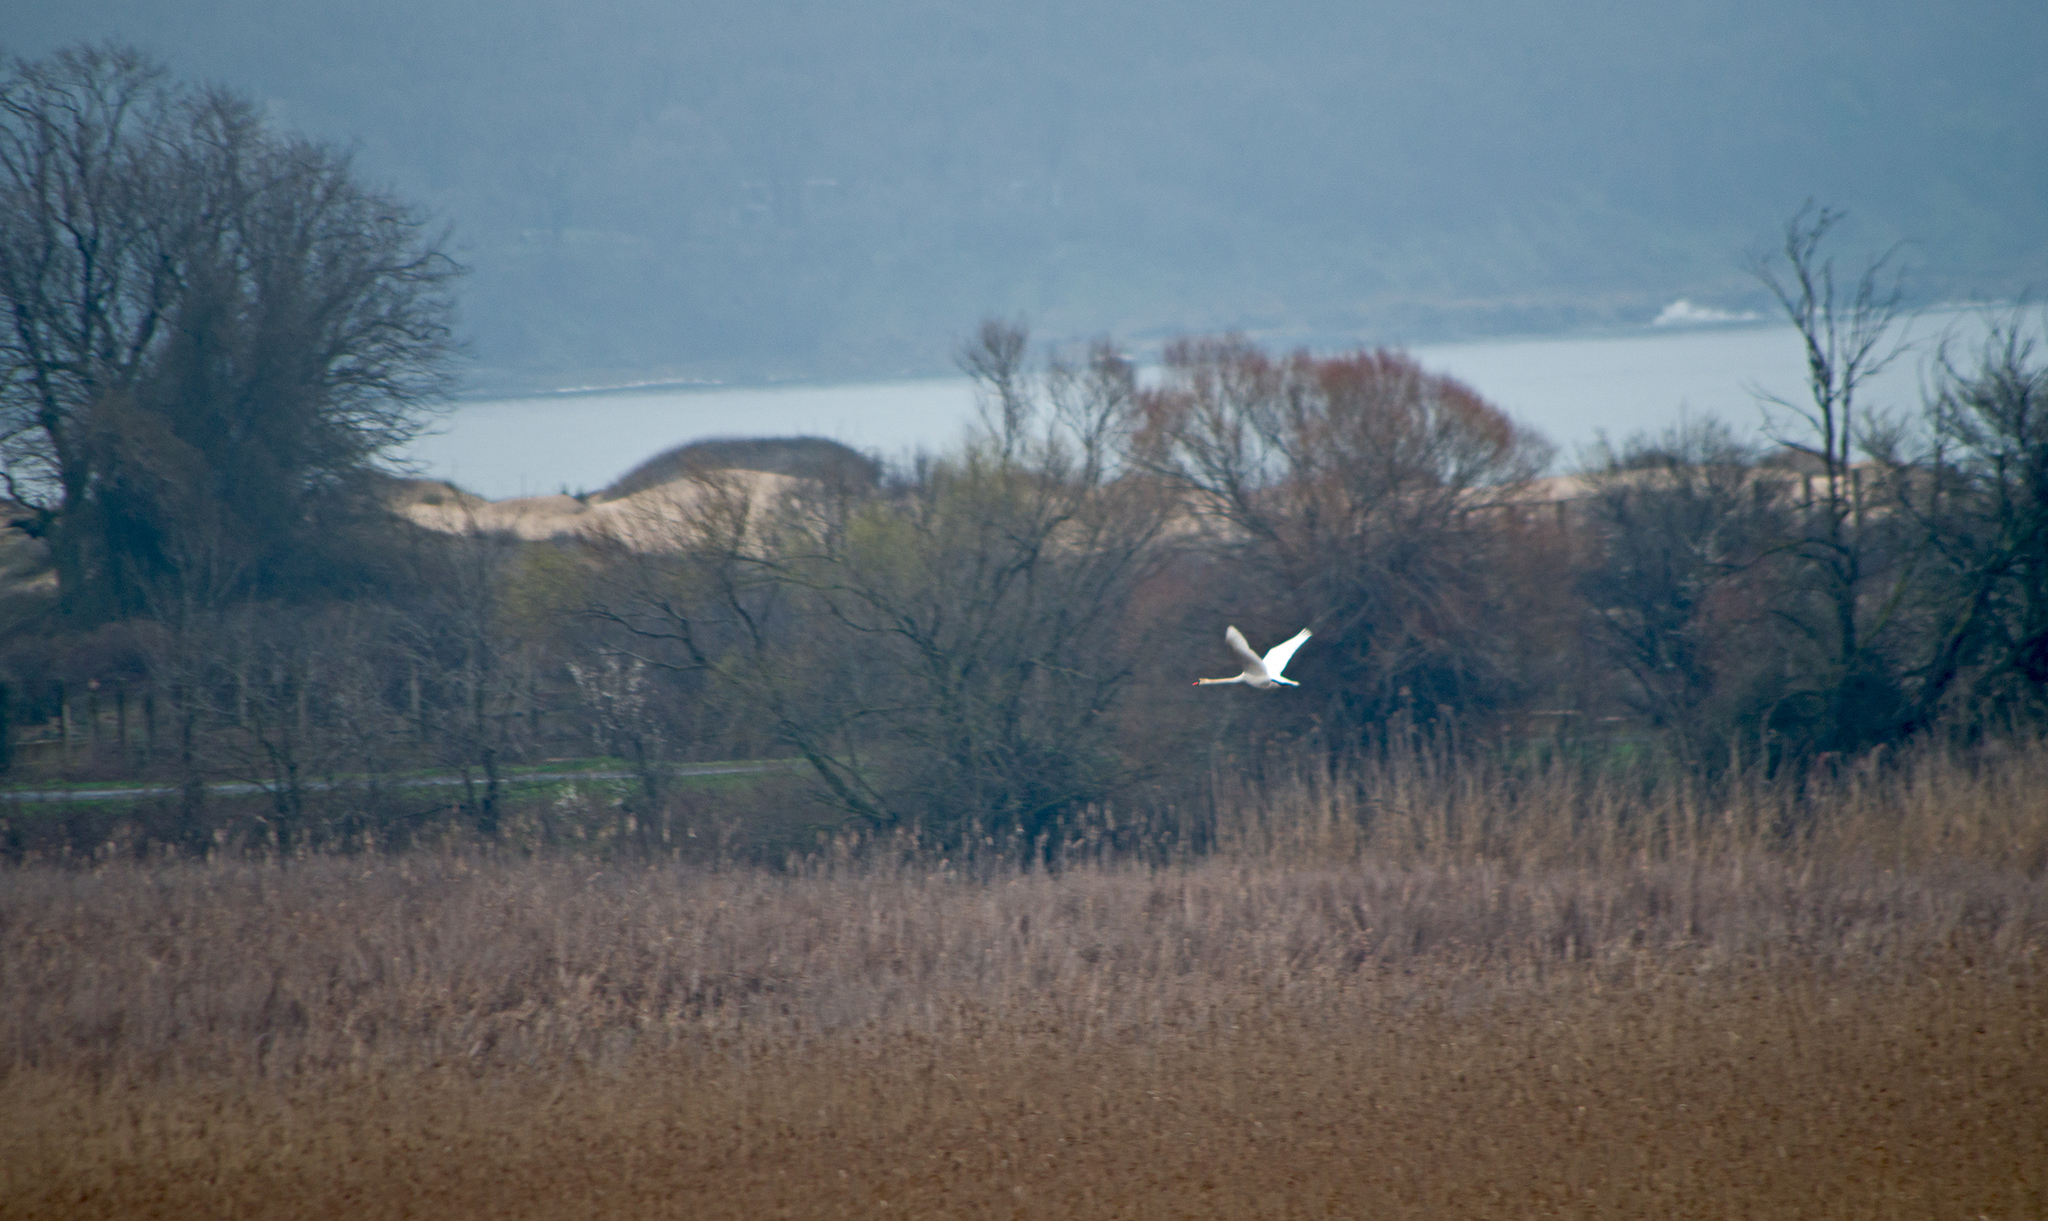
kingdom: Animalia
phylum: Chordata
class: Aves
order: Anseriformes
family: Anatidae
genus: Cygnus
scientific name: Cygnus olor
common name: Mute swan
